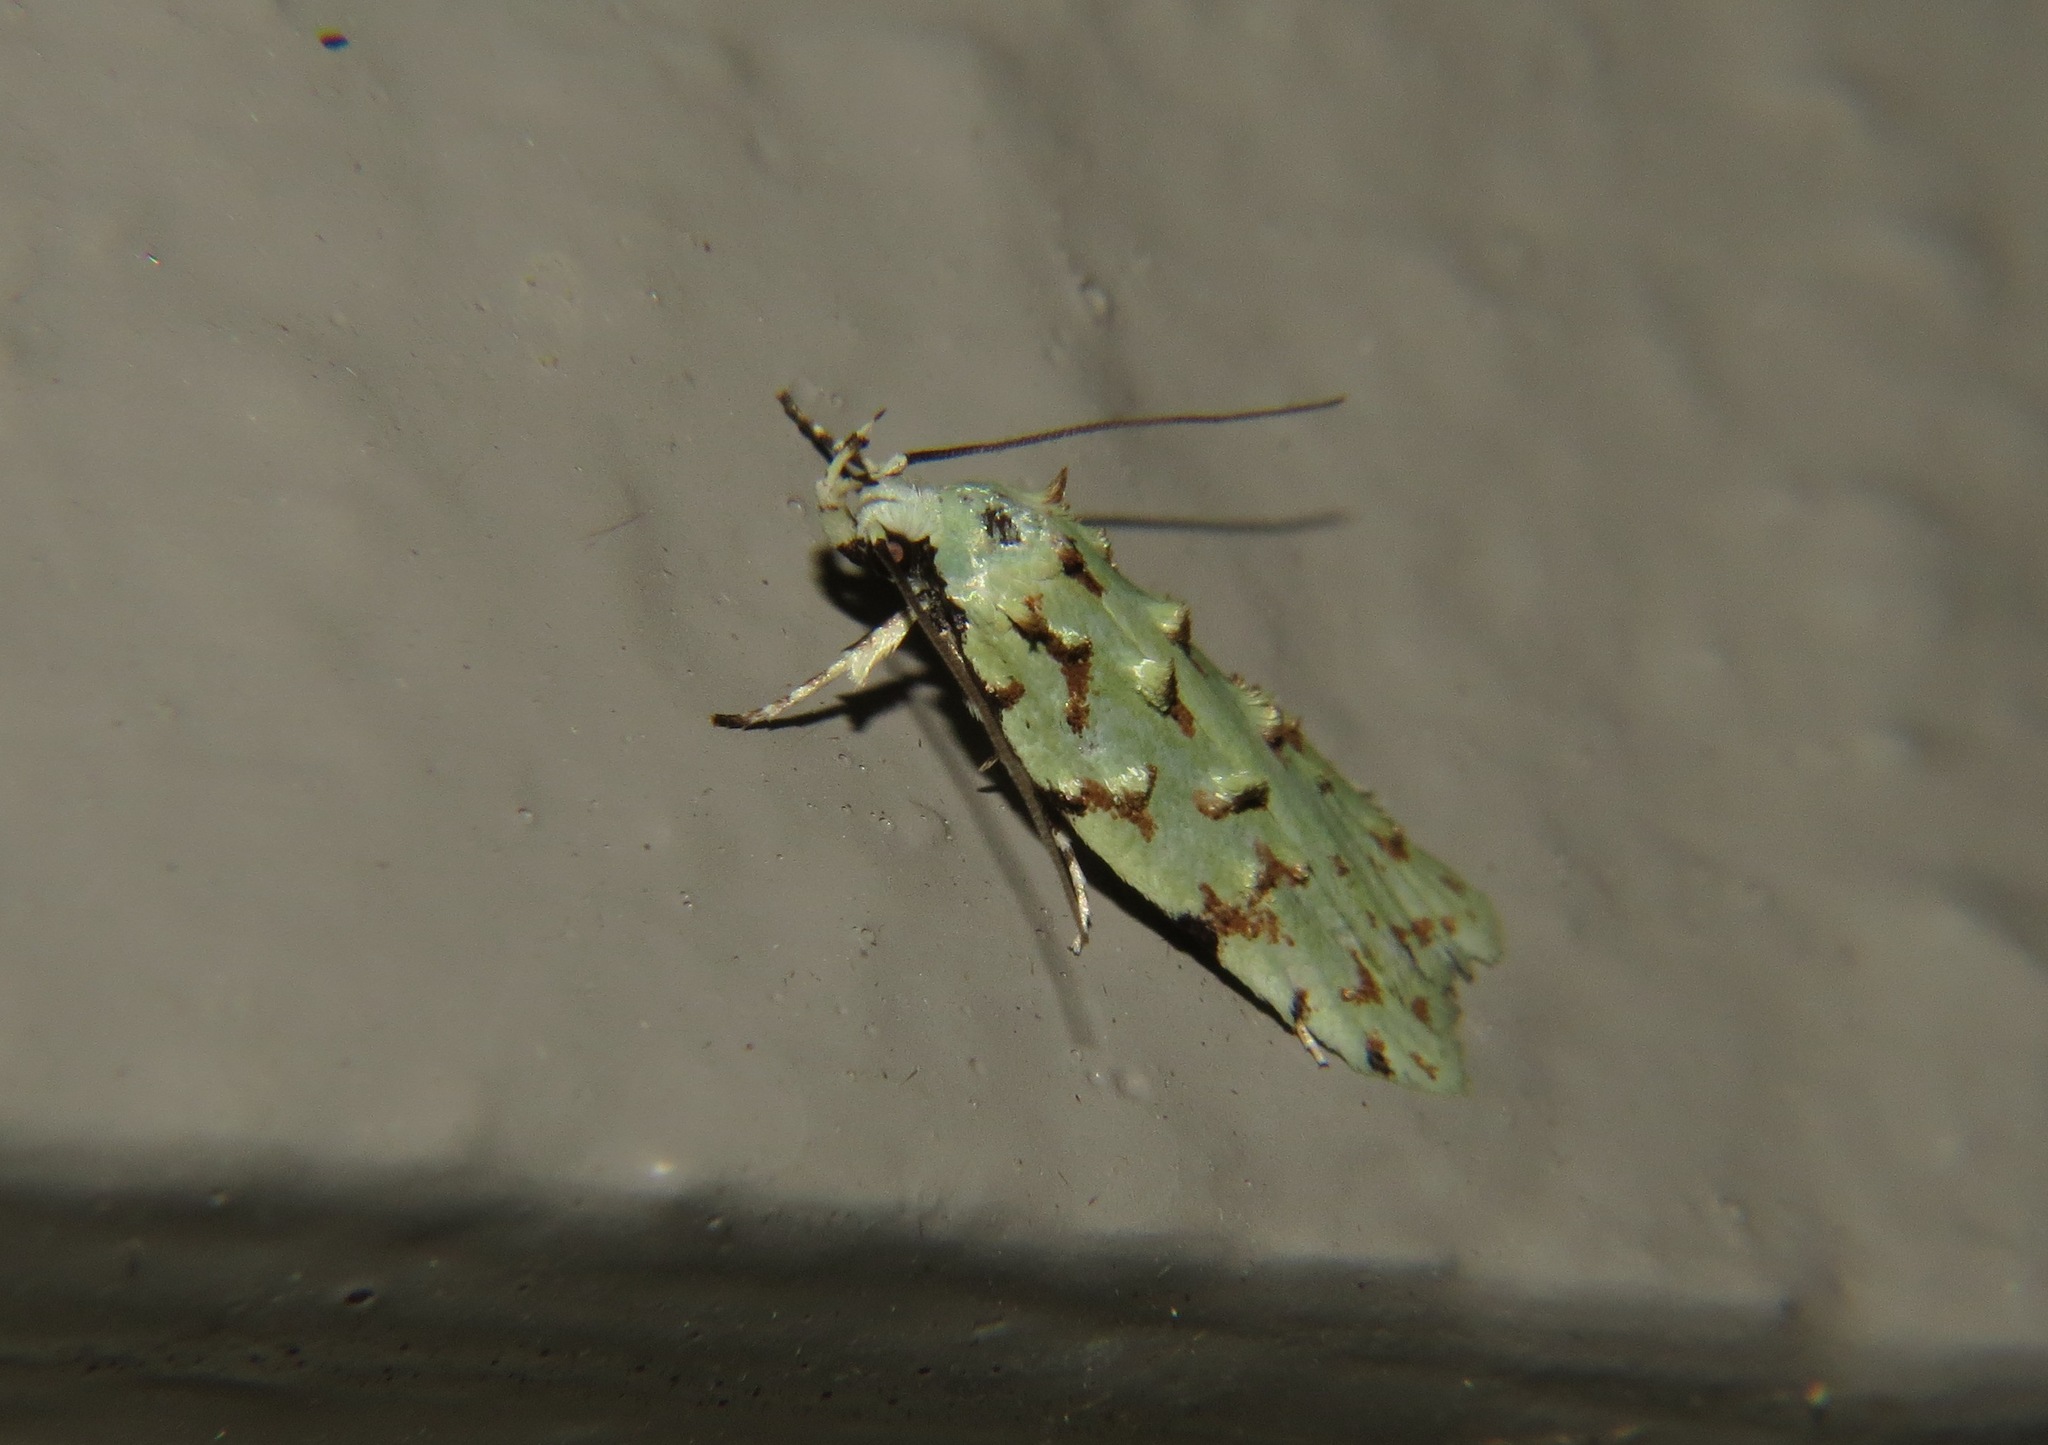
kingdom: Animalia
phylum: Arthropoda
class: Insecta
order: Lepidoptera
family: Oecophoridae
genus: Izatha
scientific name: Izatha peroneanella
